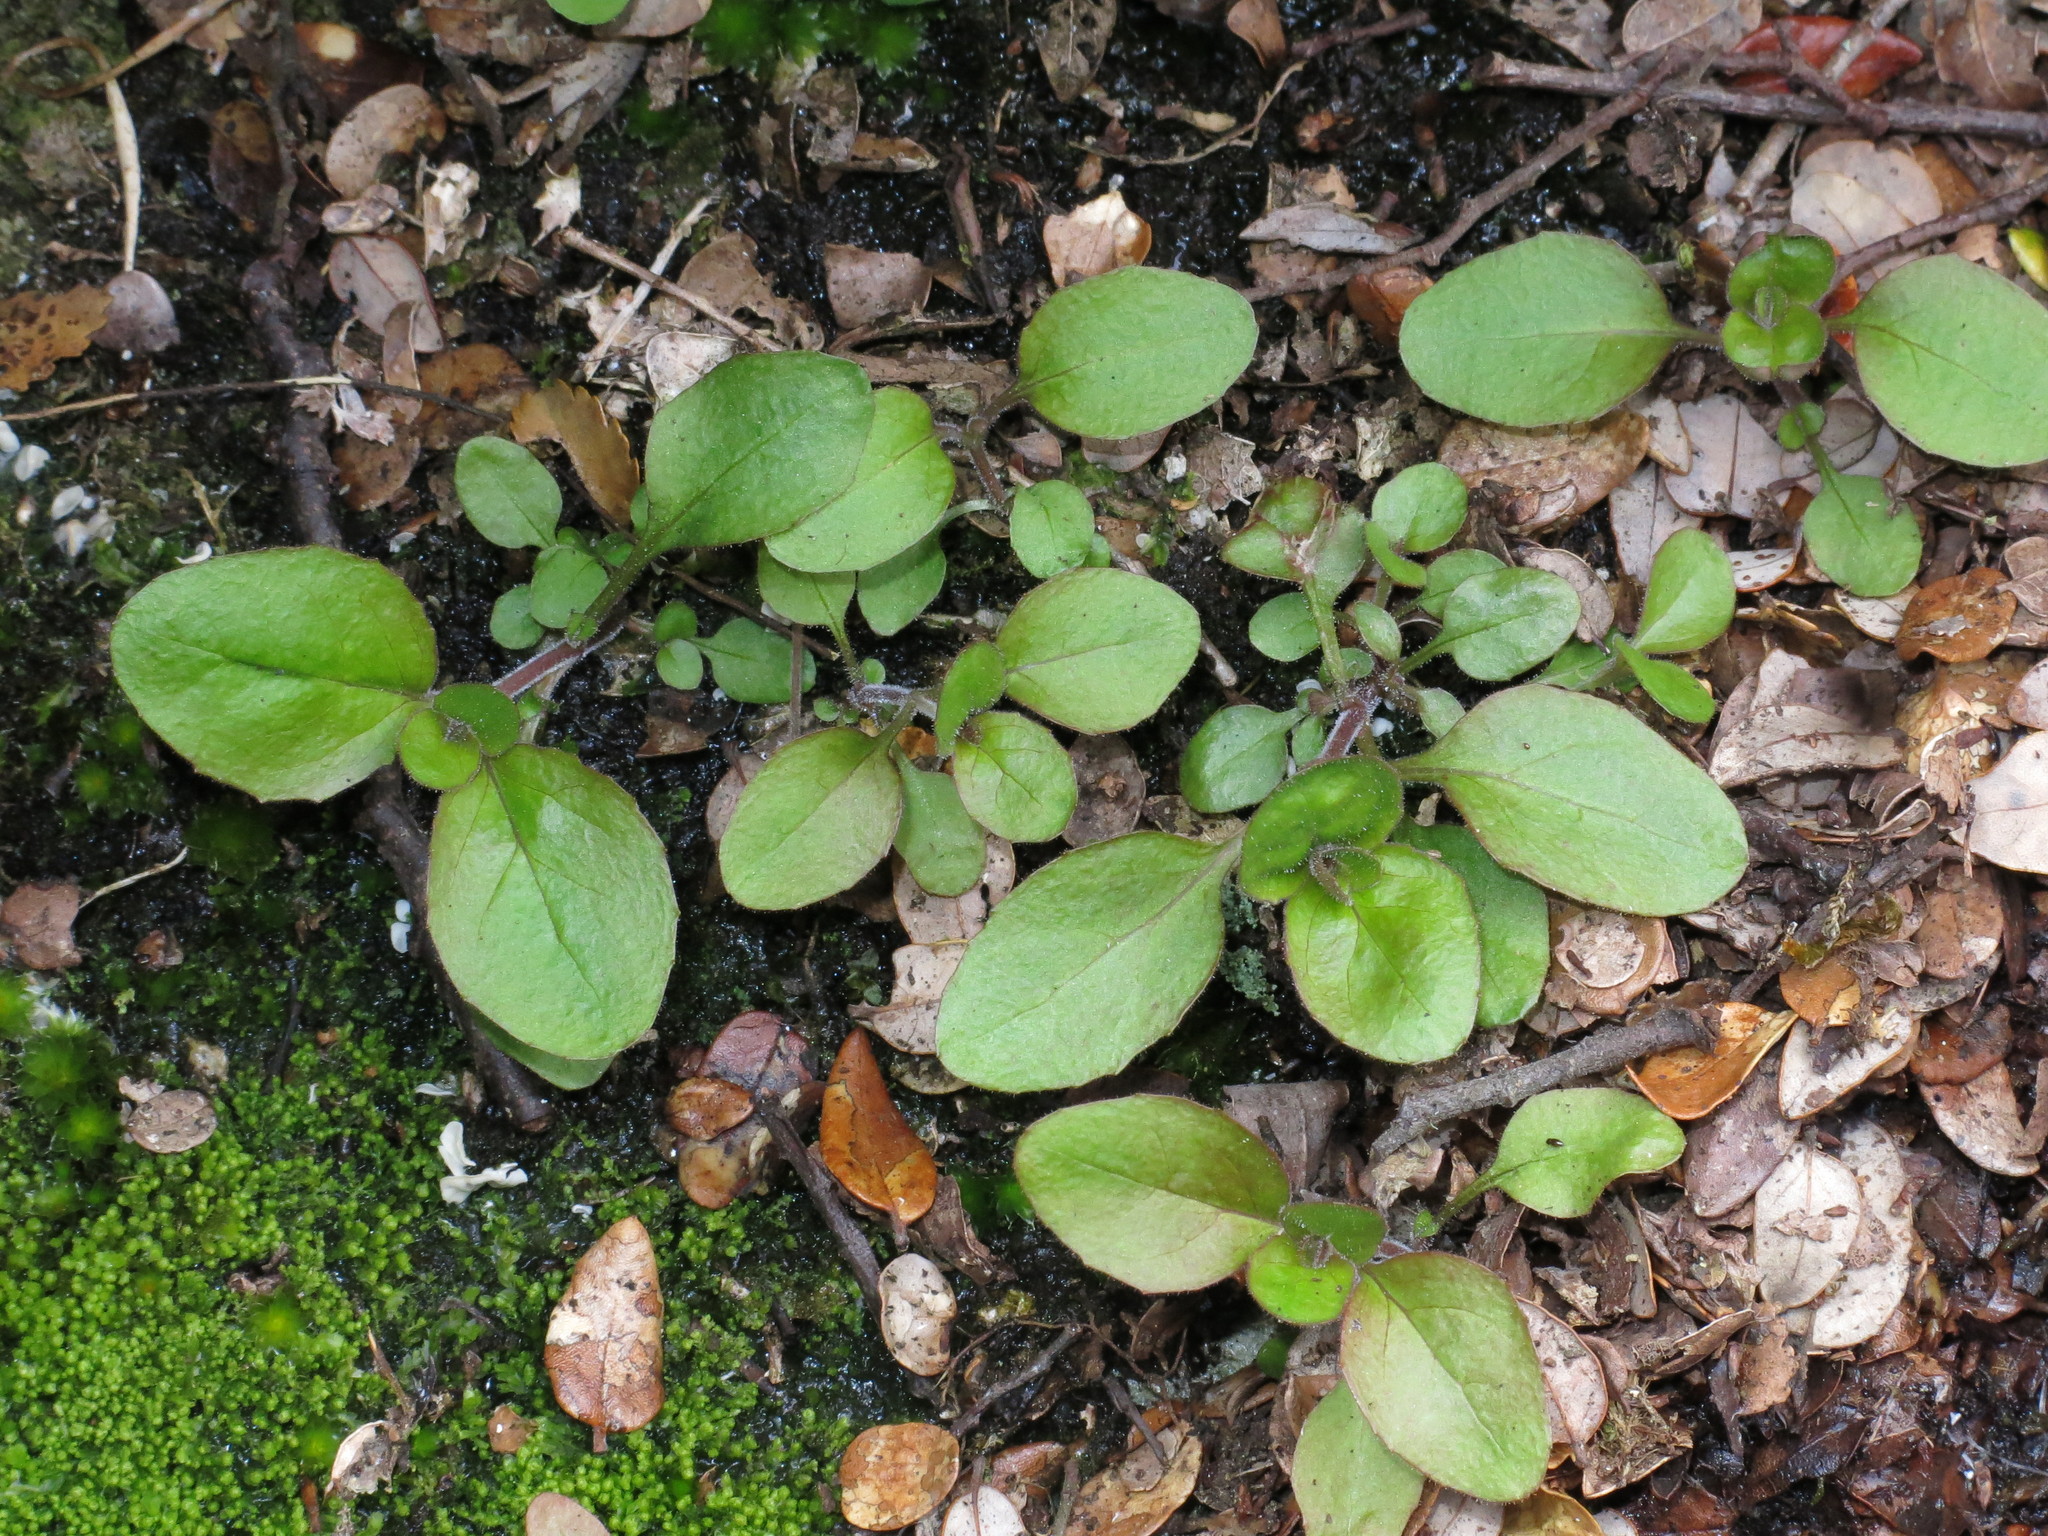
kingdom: Plantae
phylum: Tracheophyta
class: Magnoliopsida
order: Myrtales
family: Onagraceae
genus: Epilobium
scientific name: Epilobium pubens
